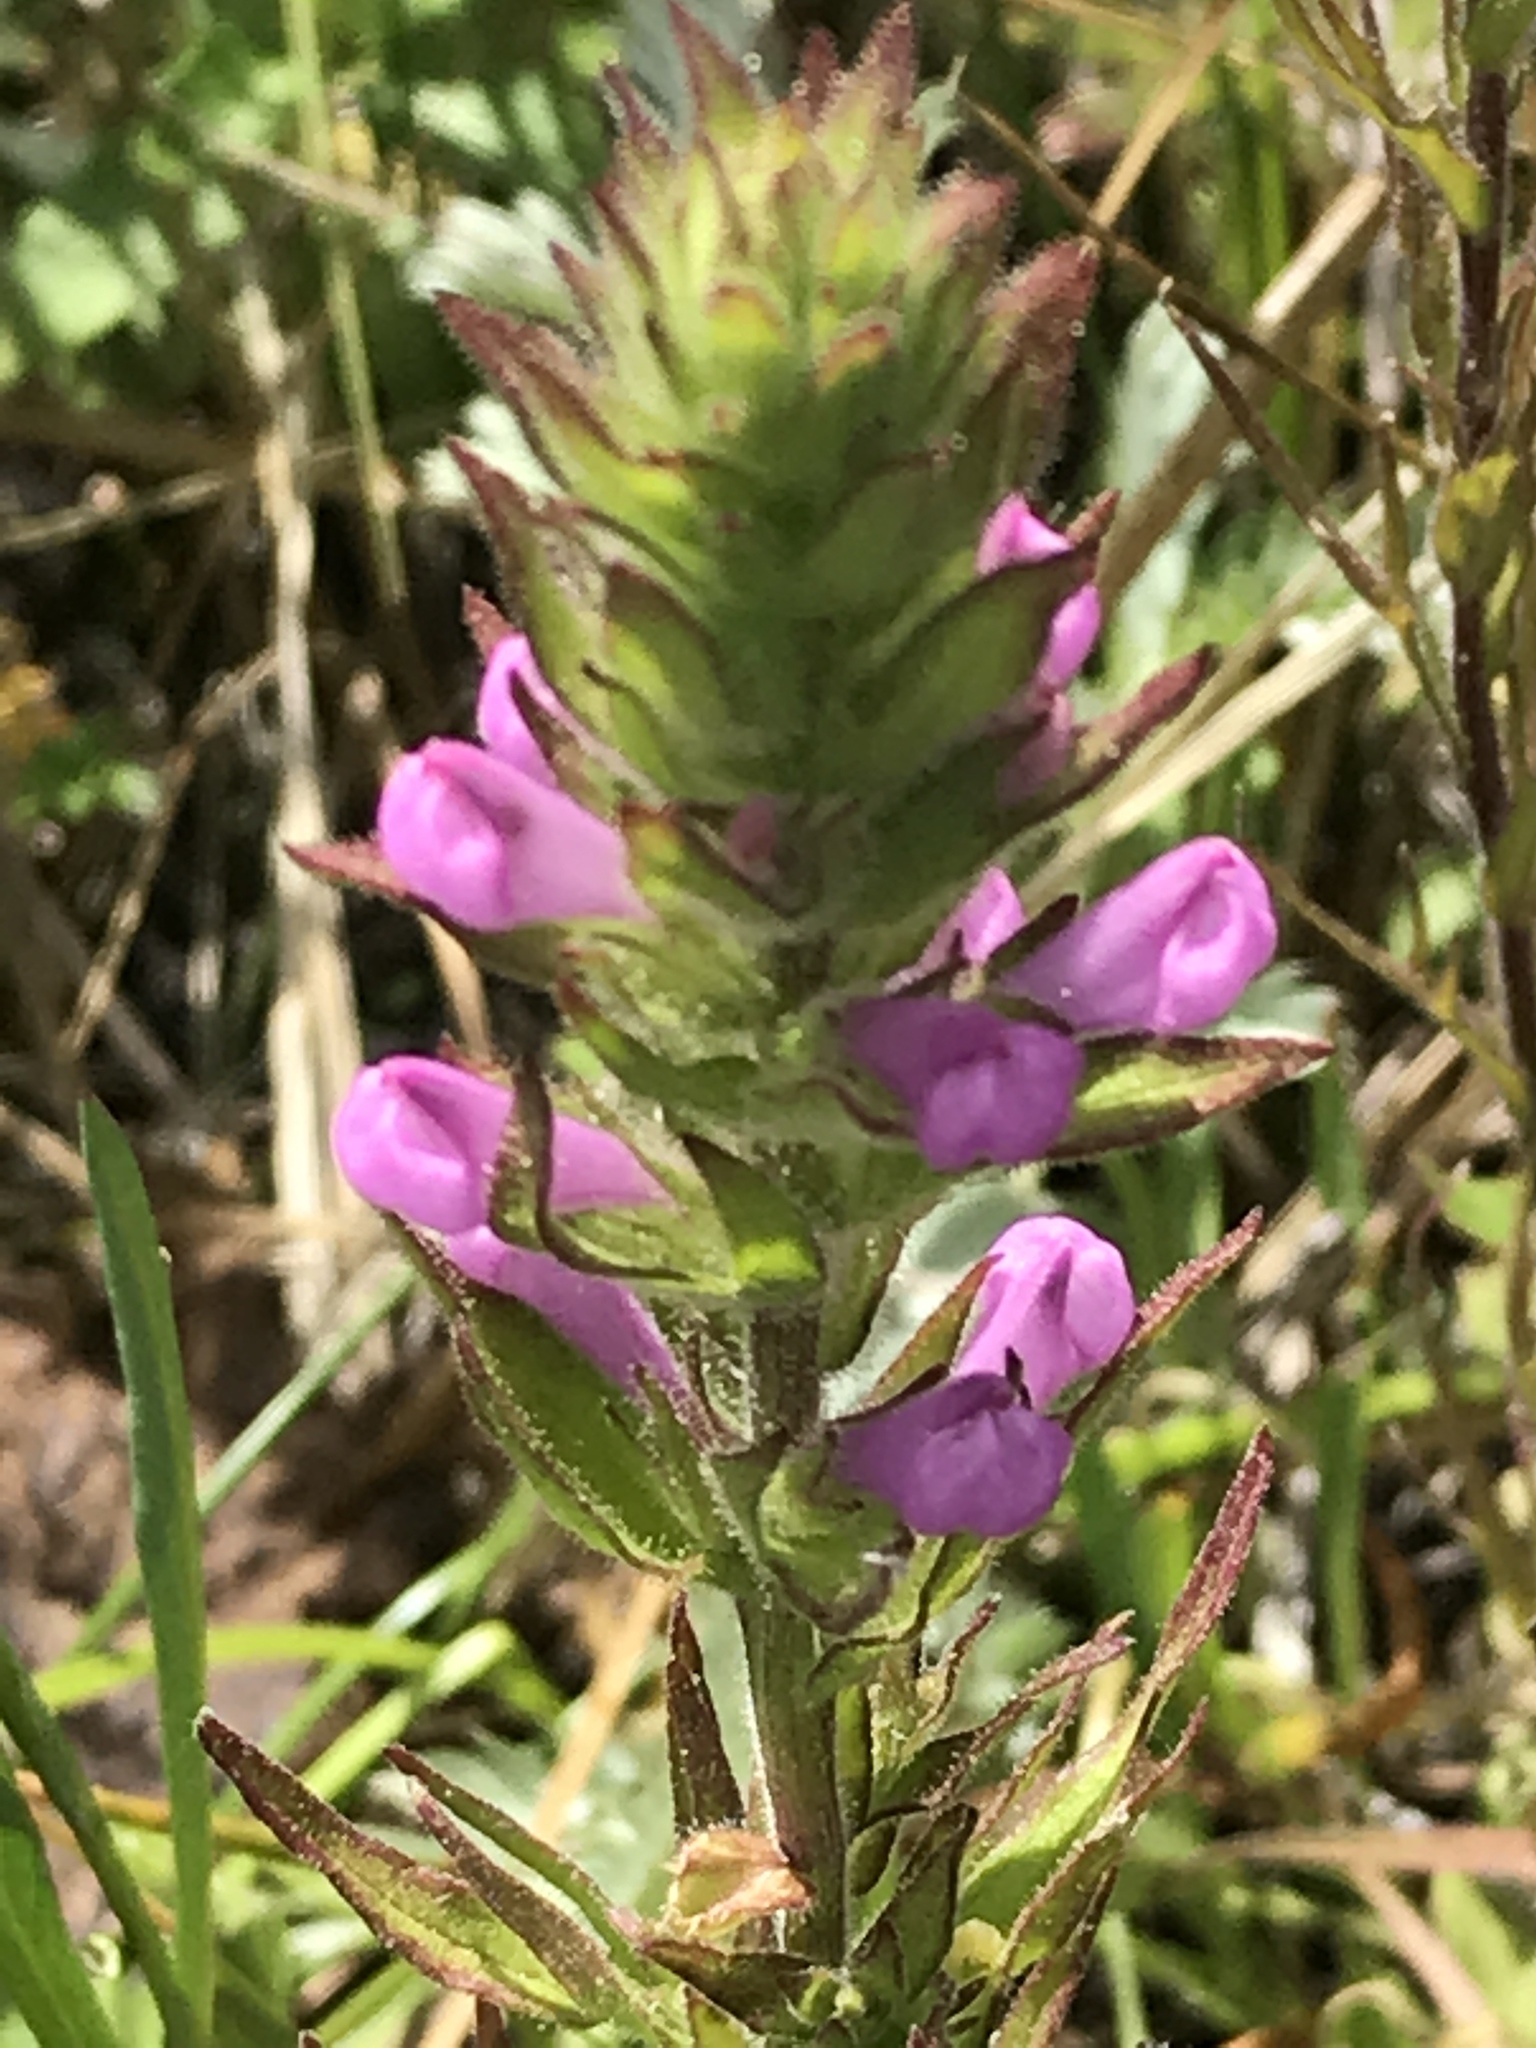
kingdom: Plantae
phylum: Tracheophyta
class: Magnoliopsida
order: Lamiales
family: Orobanchaceae
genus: Orthocarpus
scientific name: Orthocarpus bracteosus
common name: Rosy owl's-clover
